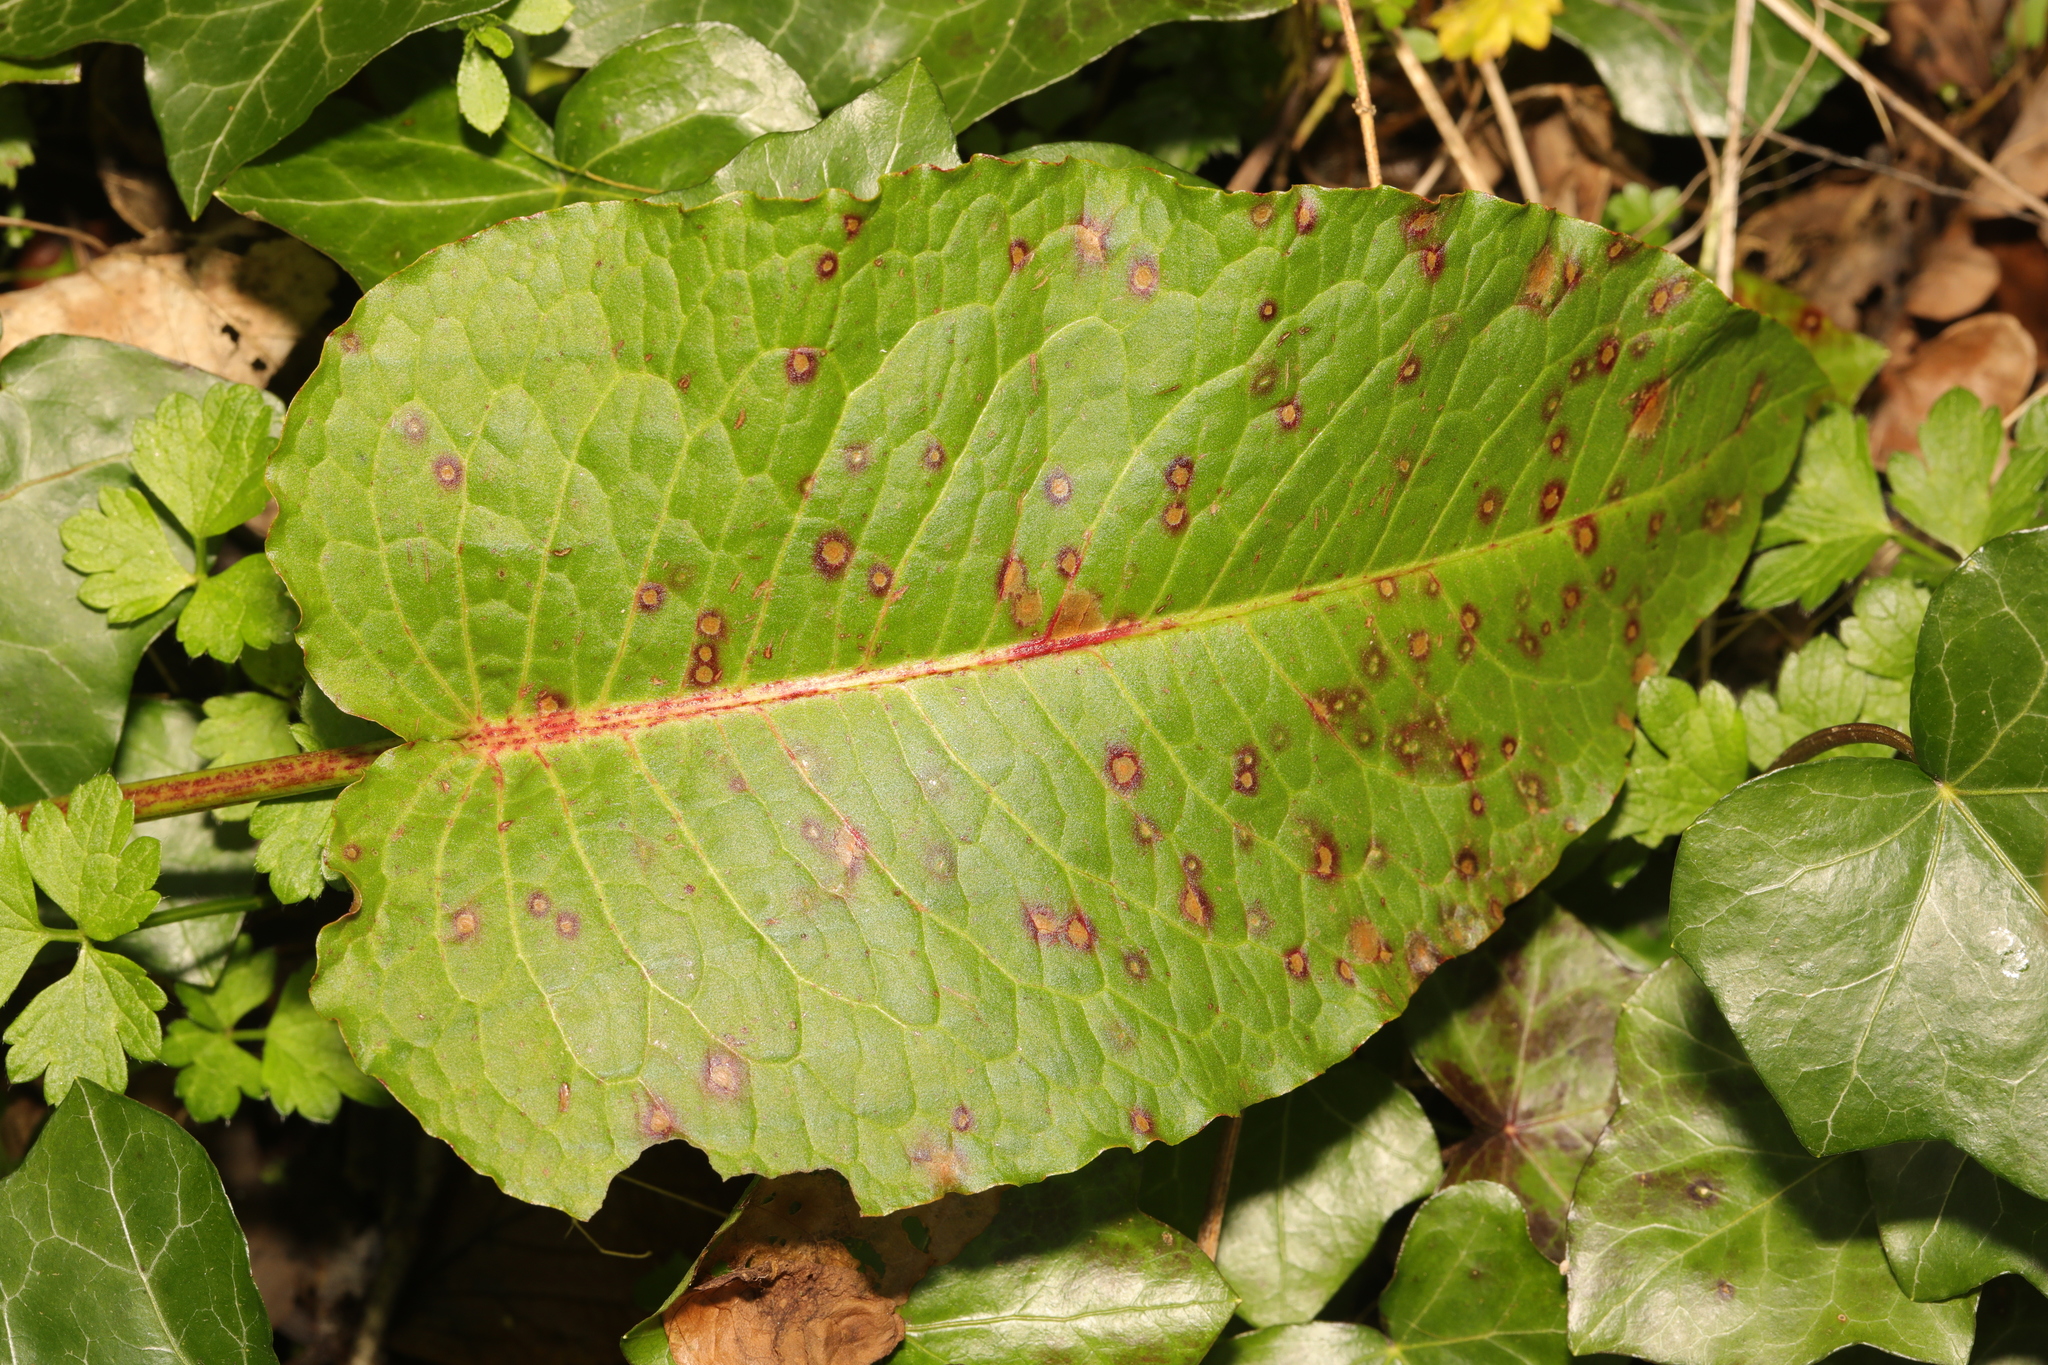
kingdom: Plantae
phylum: Tracheophyta
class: Magnoliopsida
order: Caryophyllales
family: Polygonaceae
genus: Rumex
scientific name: Rumex obtusifolius
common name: Bitter dock
